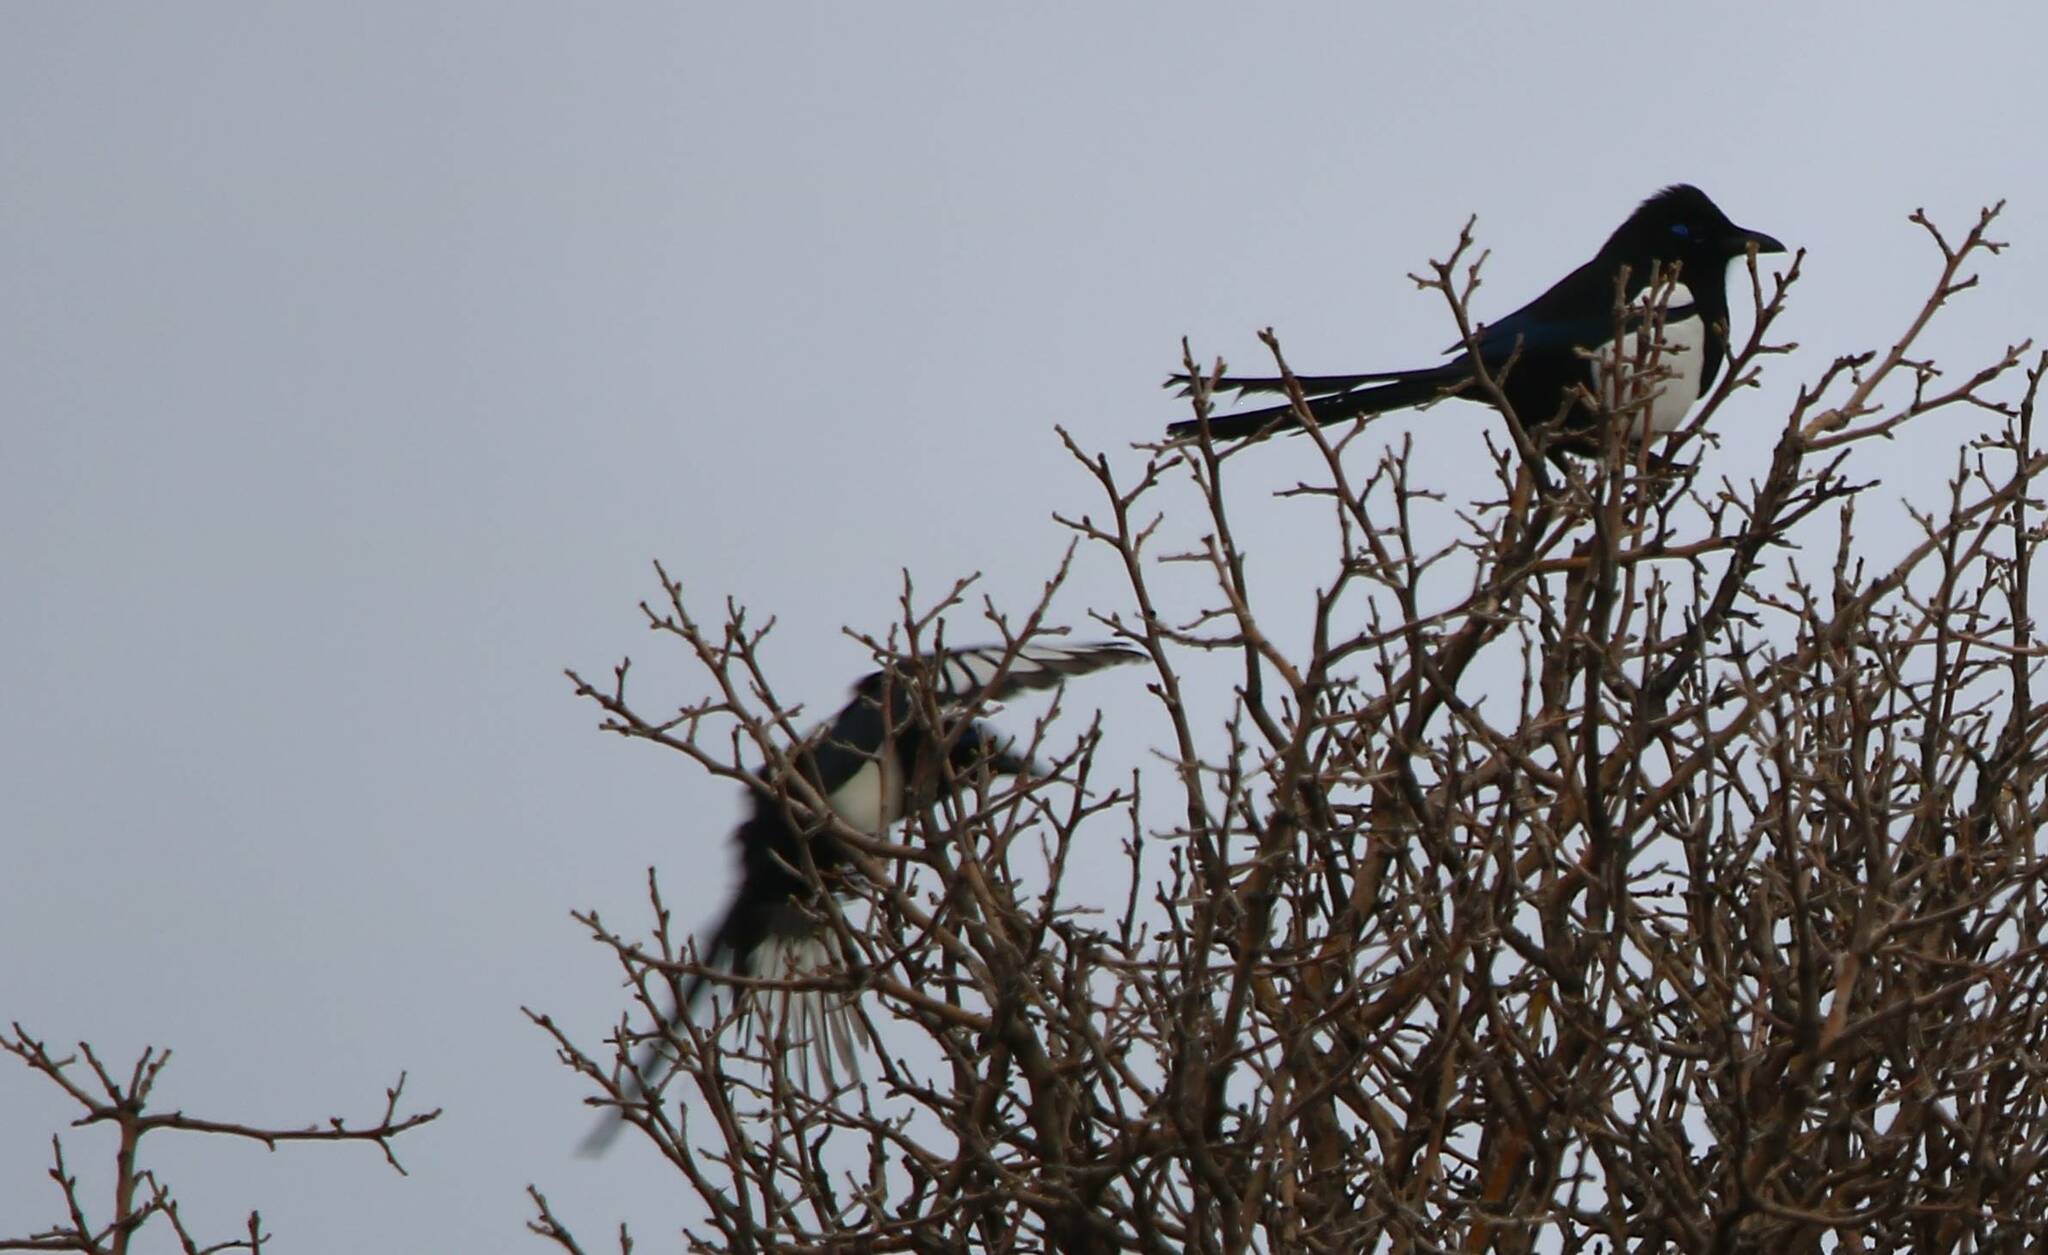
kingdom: Animalia
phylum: Chordata
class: Aves
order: Passeriformes
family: Corvidae
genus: Pica
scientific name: Pica mauritanica
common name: Maghreb magpie
